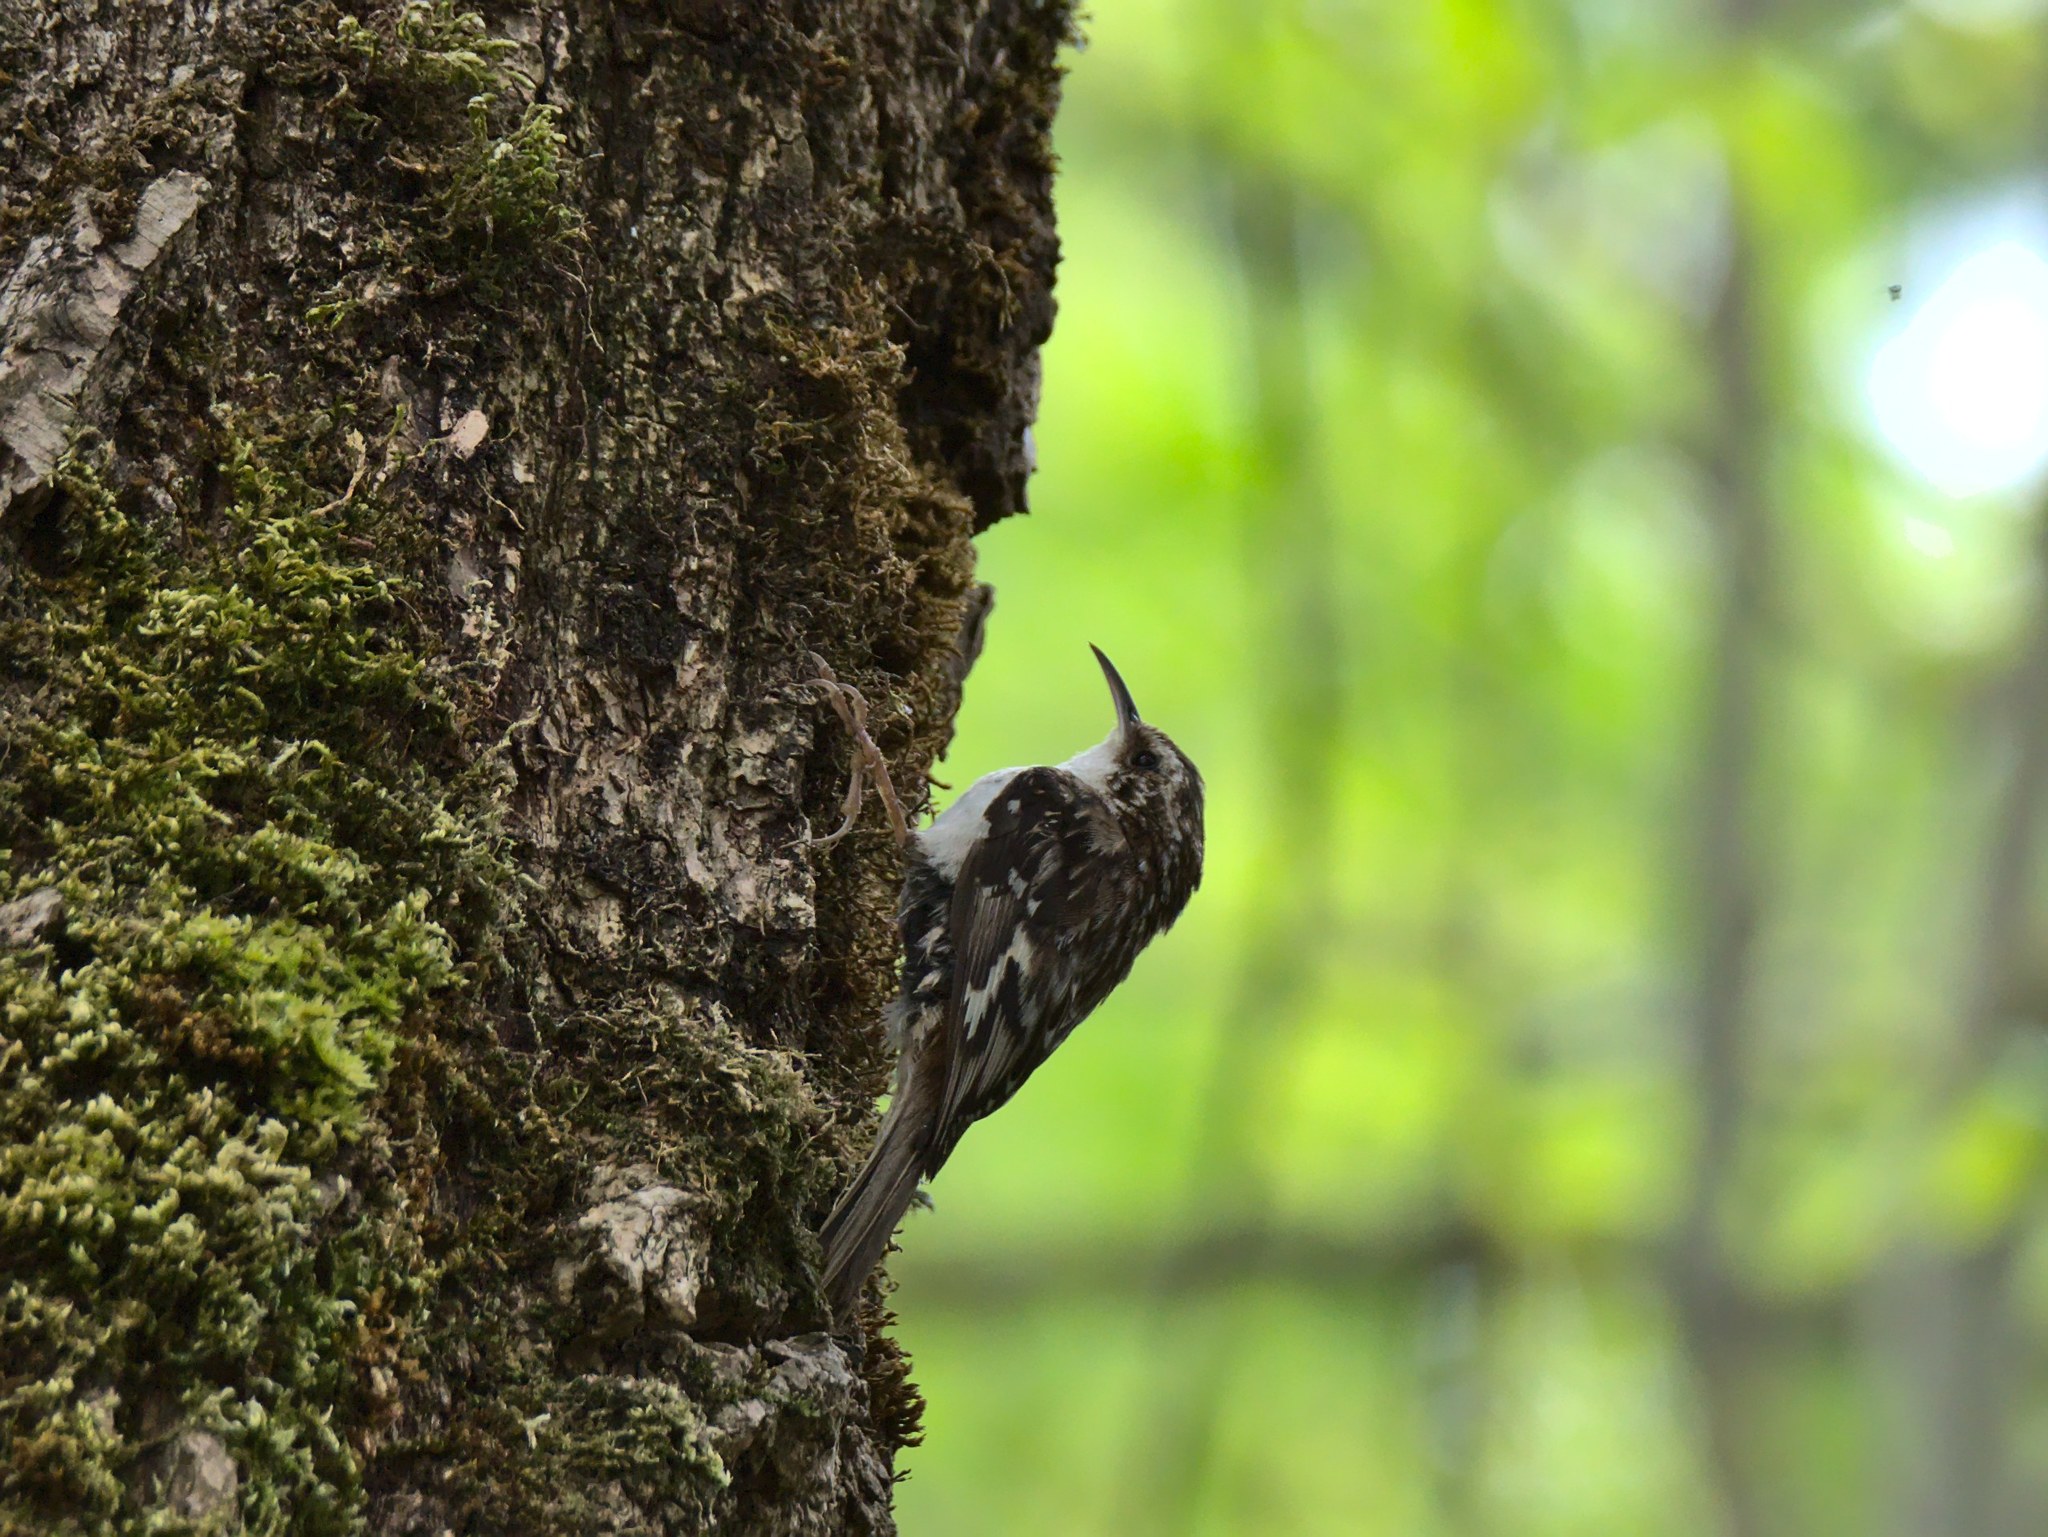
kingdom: Animalia
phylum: Chordata
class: Aves
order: Passeriformes
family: Certhiidae
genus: Certhia
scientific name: Certhia americana
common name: Brown creeper
